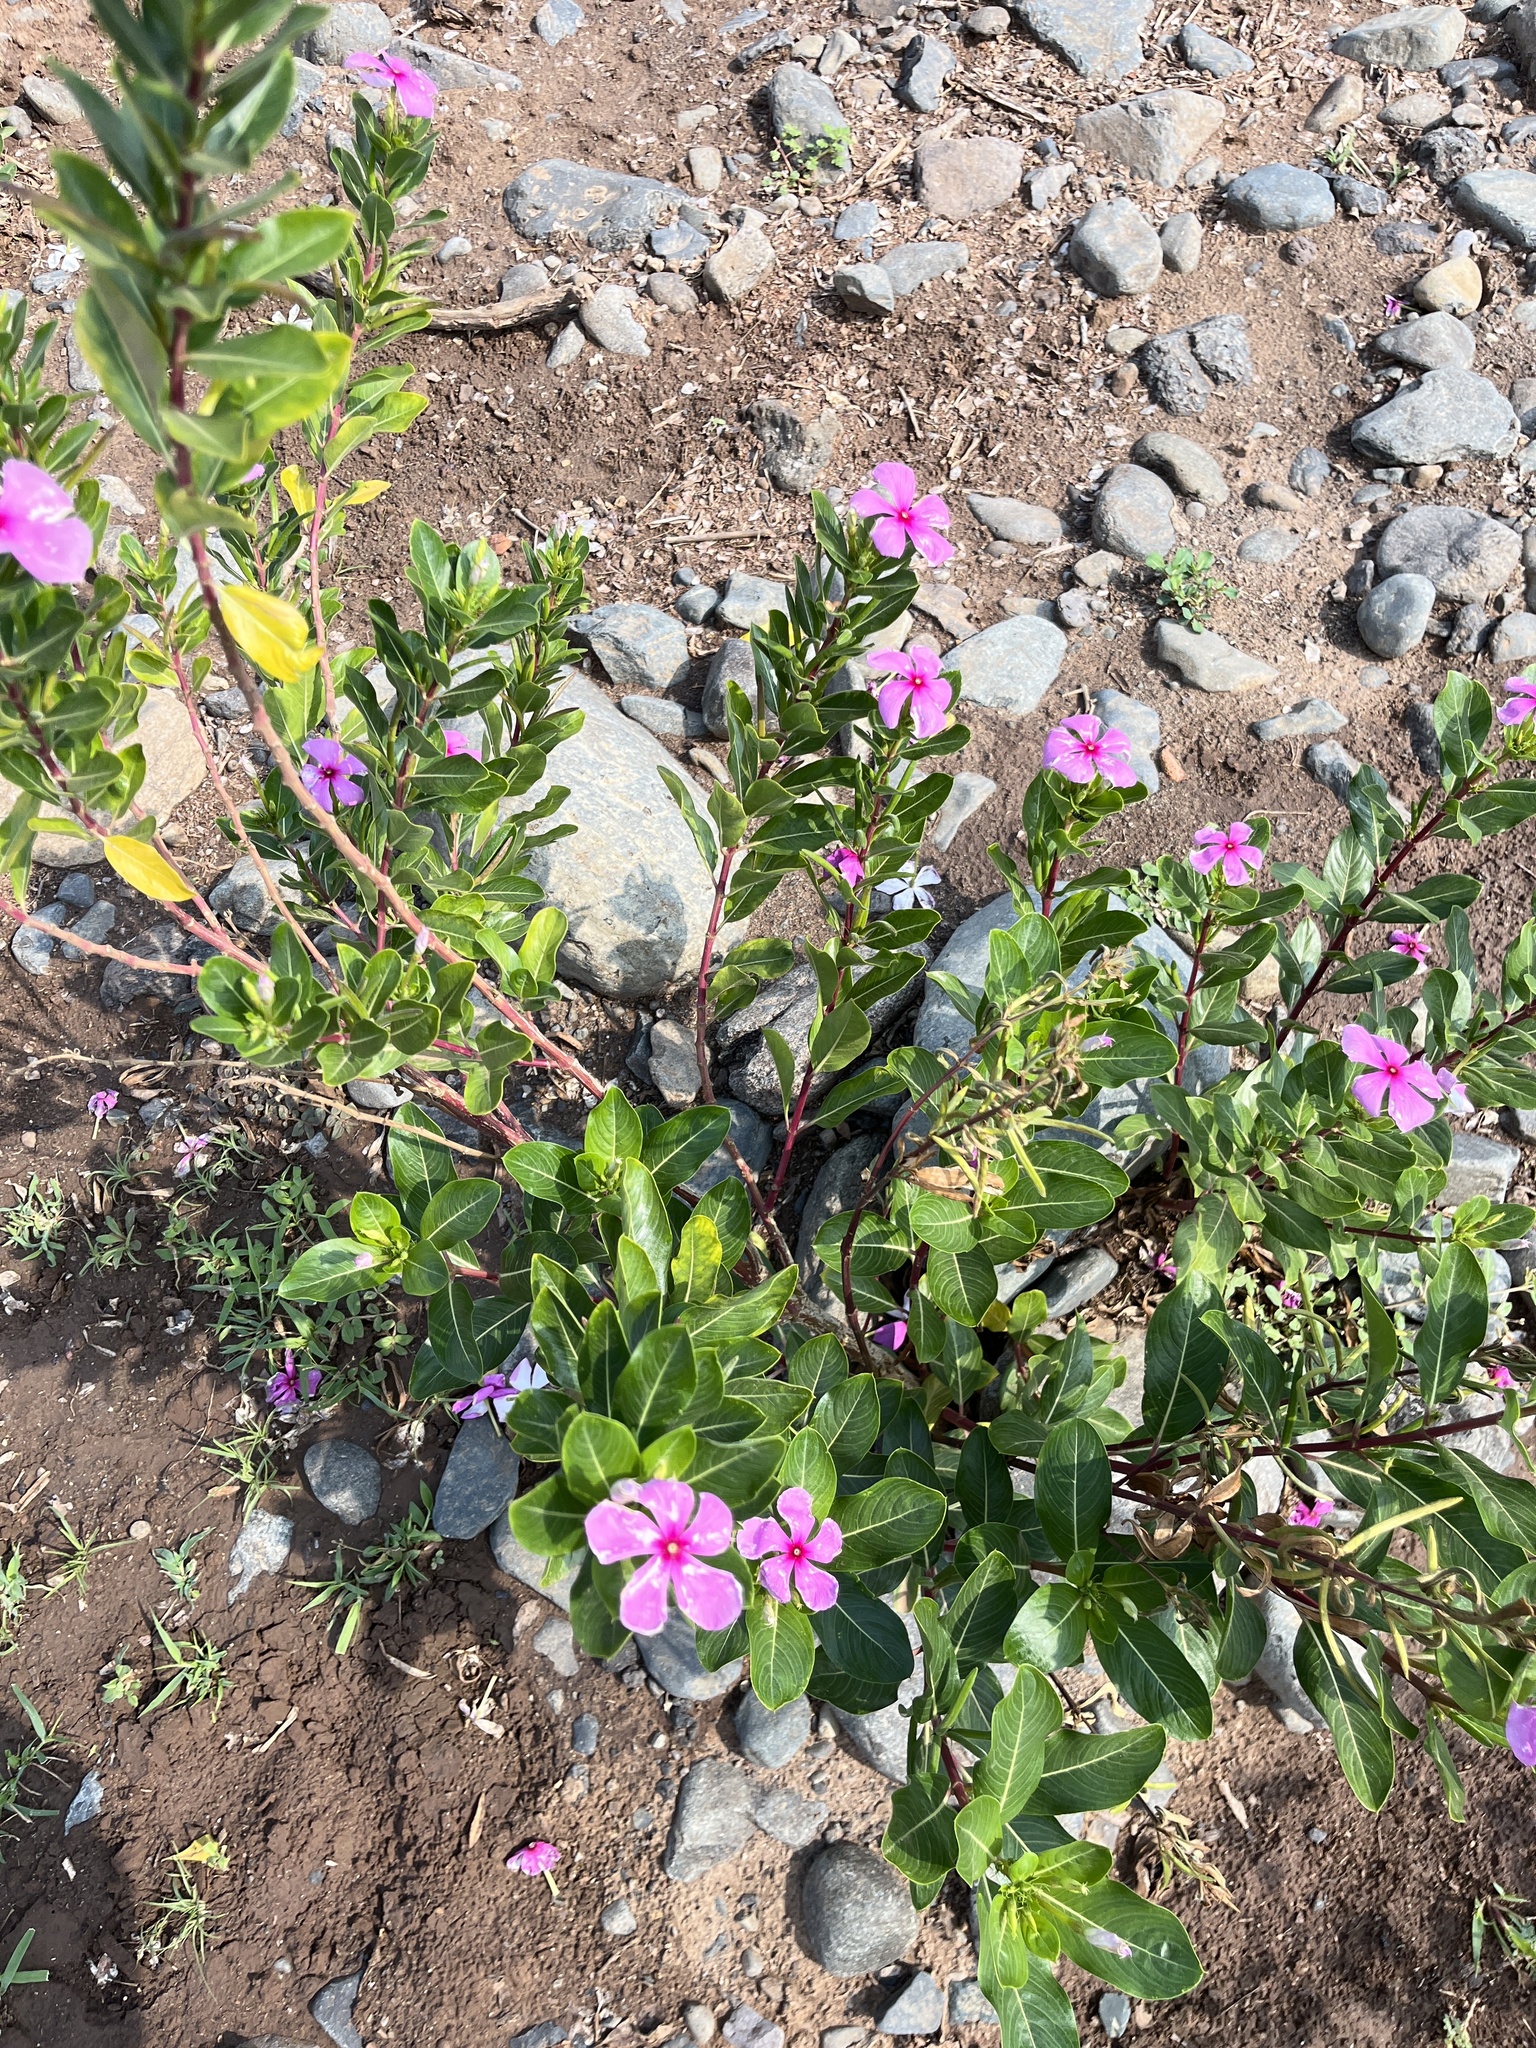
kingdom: Plantae
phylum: Tracheophyta
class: Magnoliopsida
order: Gentianales
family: Apocynaceae
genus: Catharanthus
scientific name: Catharanthus roseus
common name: Madagascar periwinkle
